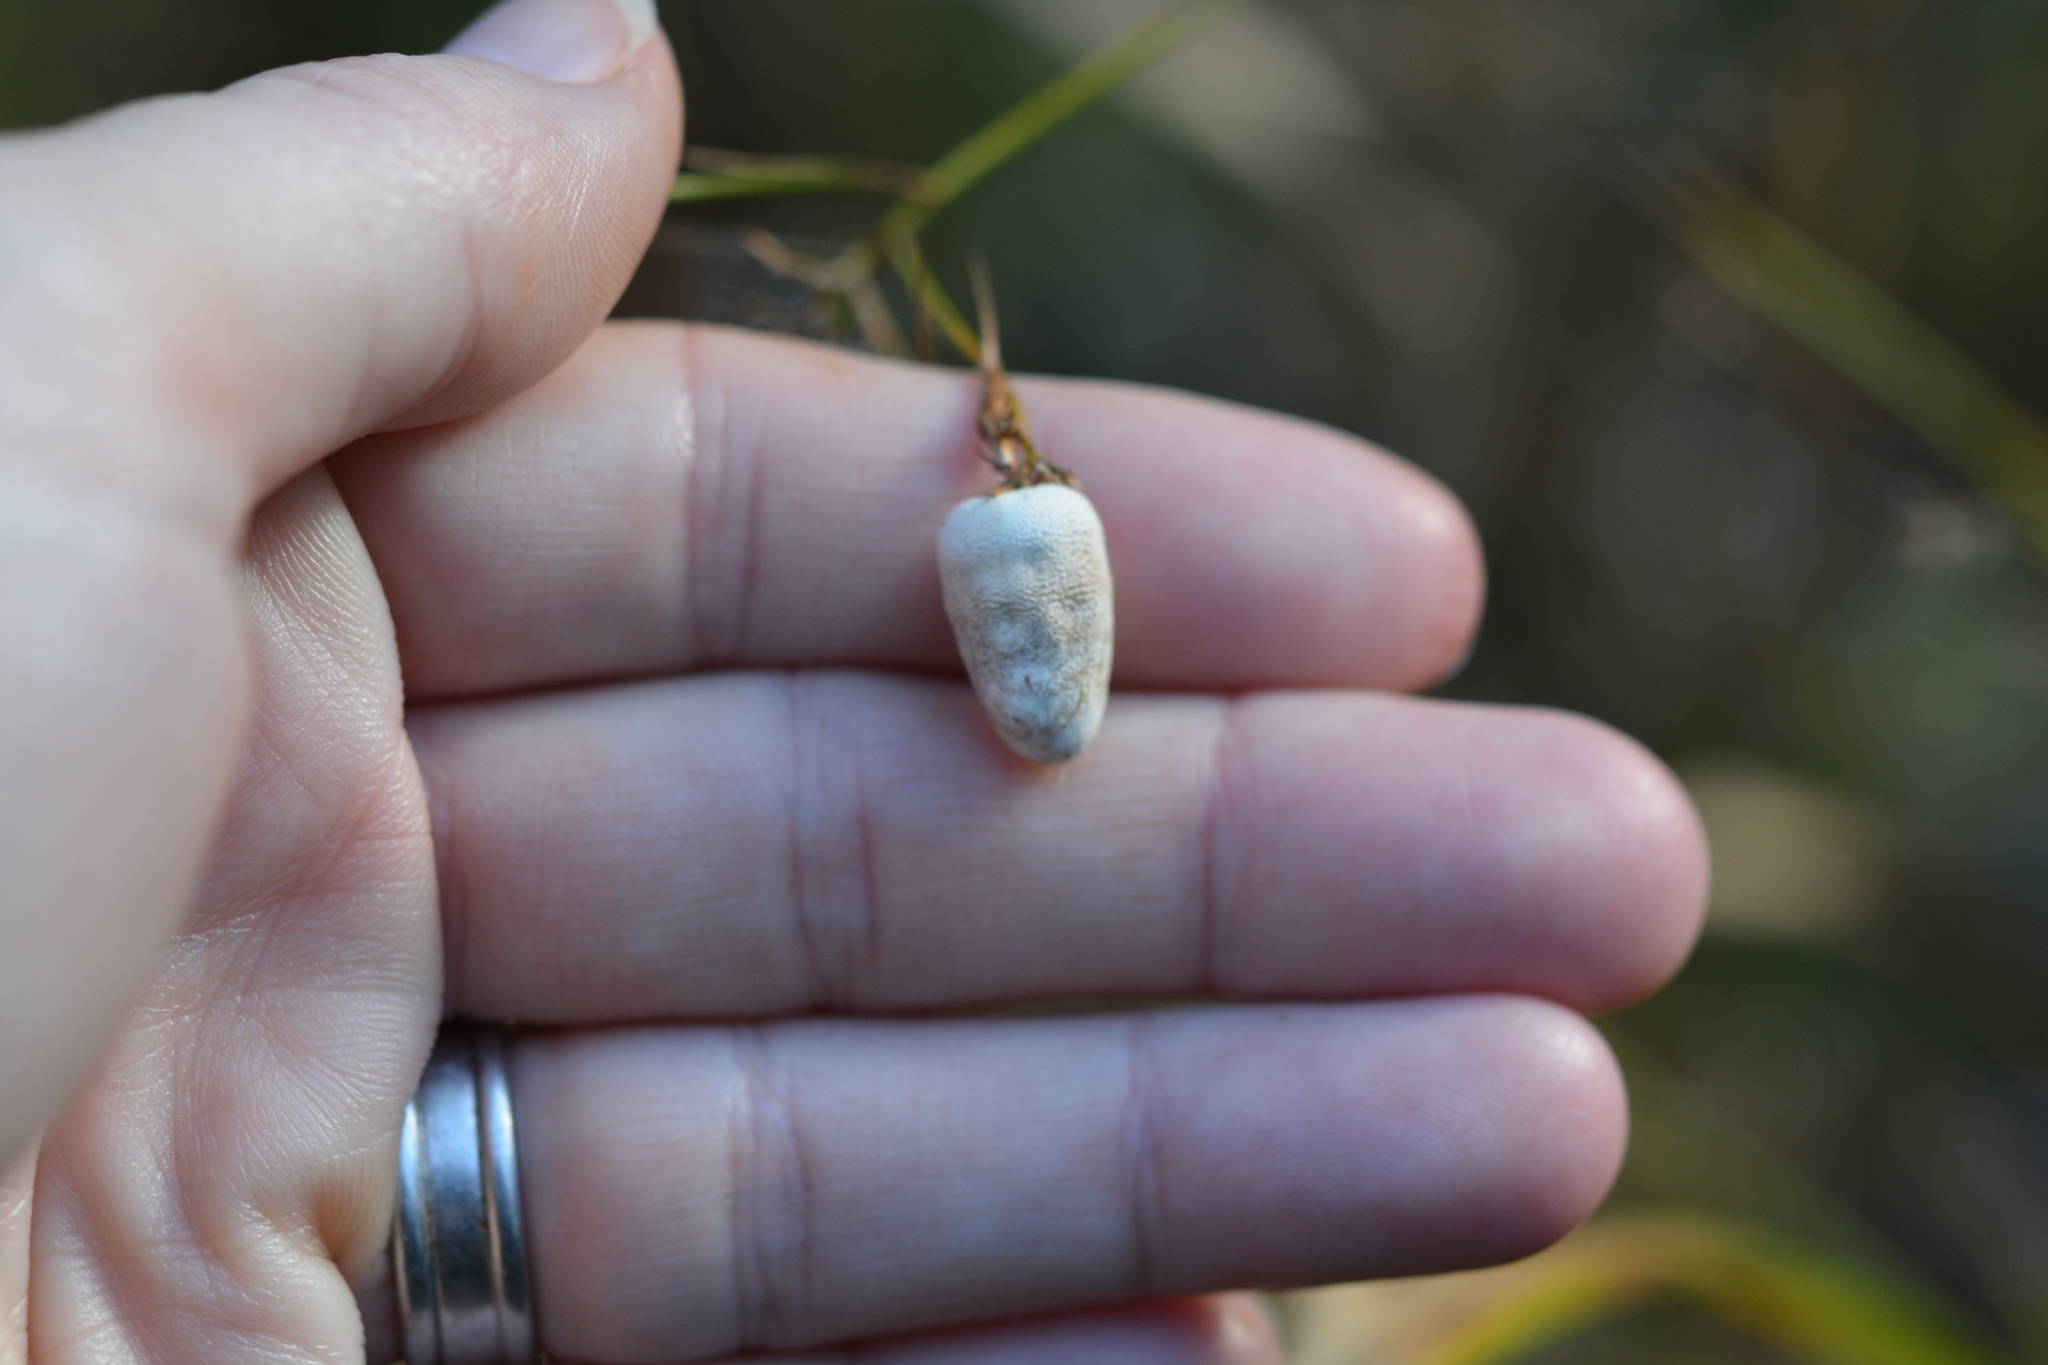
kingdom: Fungi
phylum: Basidiomycota
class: Ustilaginomycetes
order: Ustilaginales
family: Anthracoideaceae
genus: Testicularia
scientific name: Testicularia cyperi
